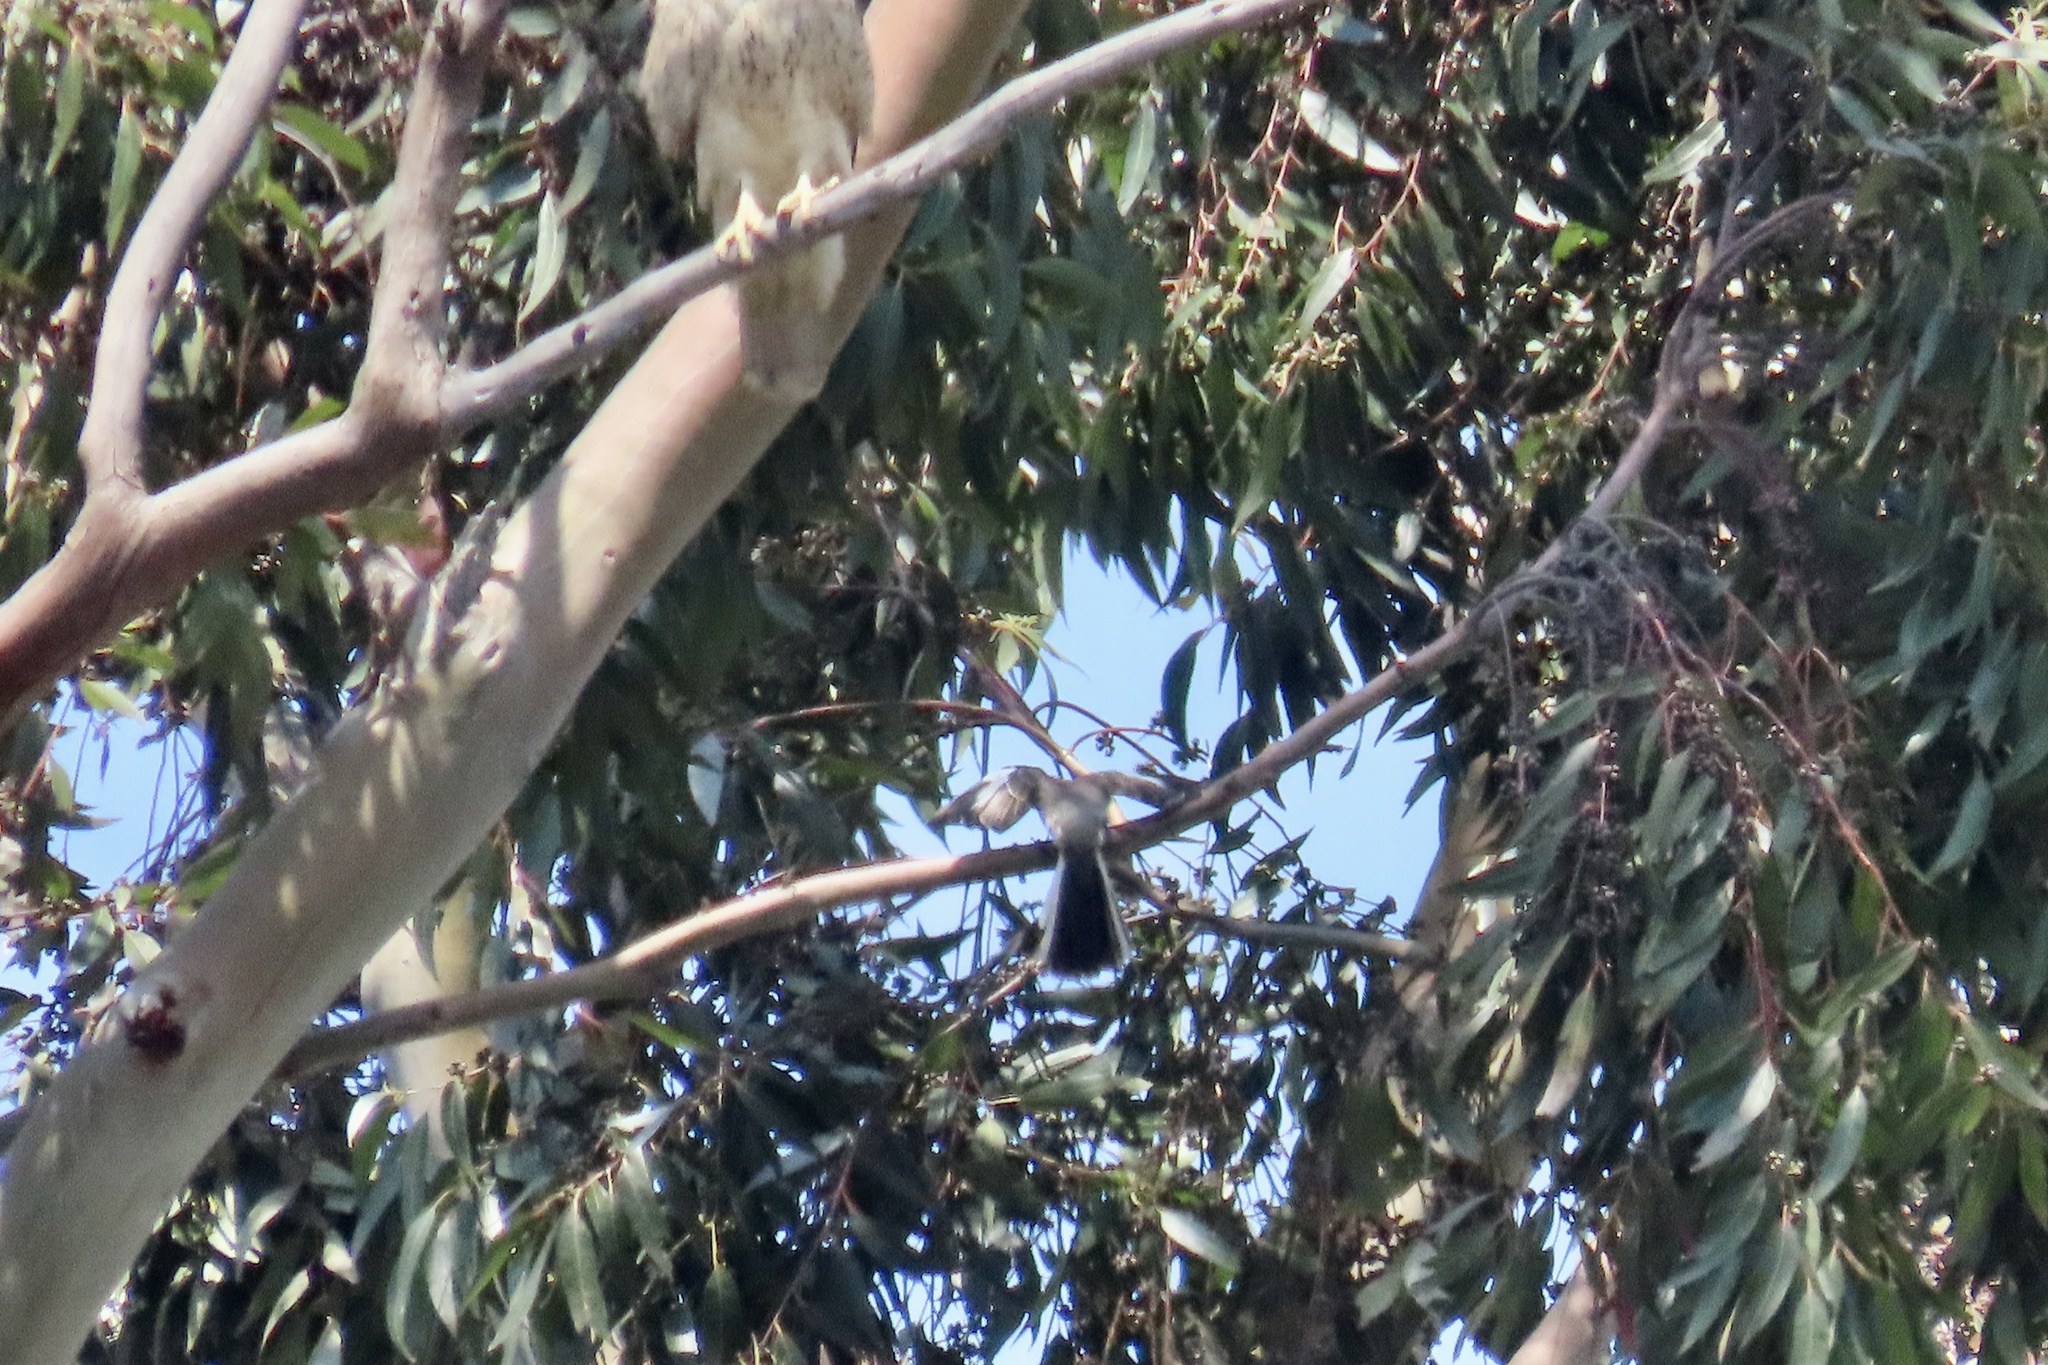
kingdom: Animalia
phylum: Chordata
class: Aves
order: Passeriformes
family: Mimidae
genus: Mimus
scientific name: Mimus polyglottos
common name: Northern mockingbird
